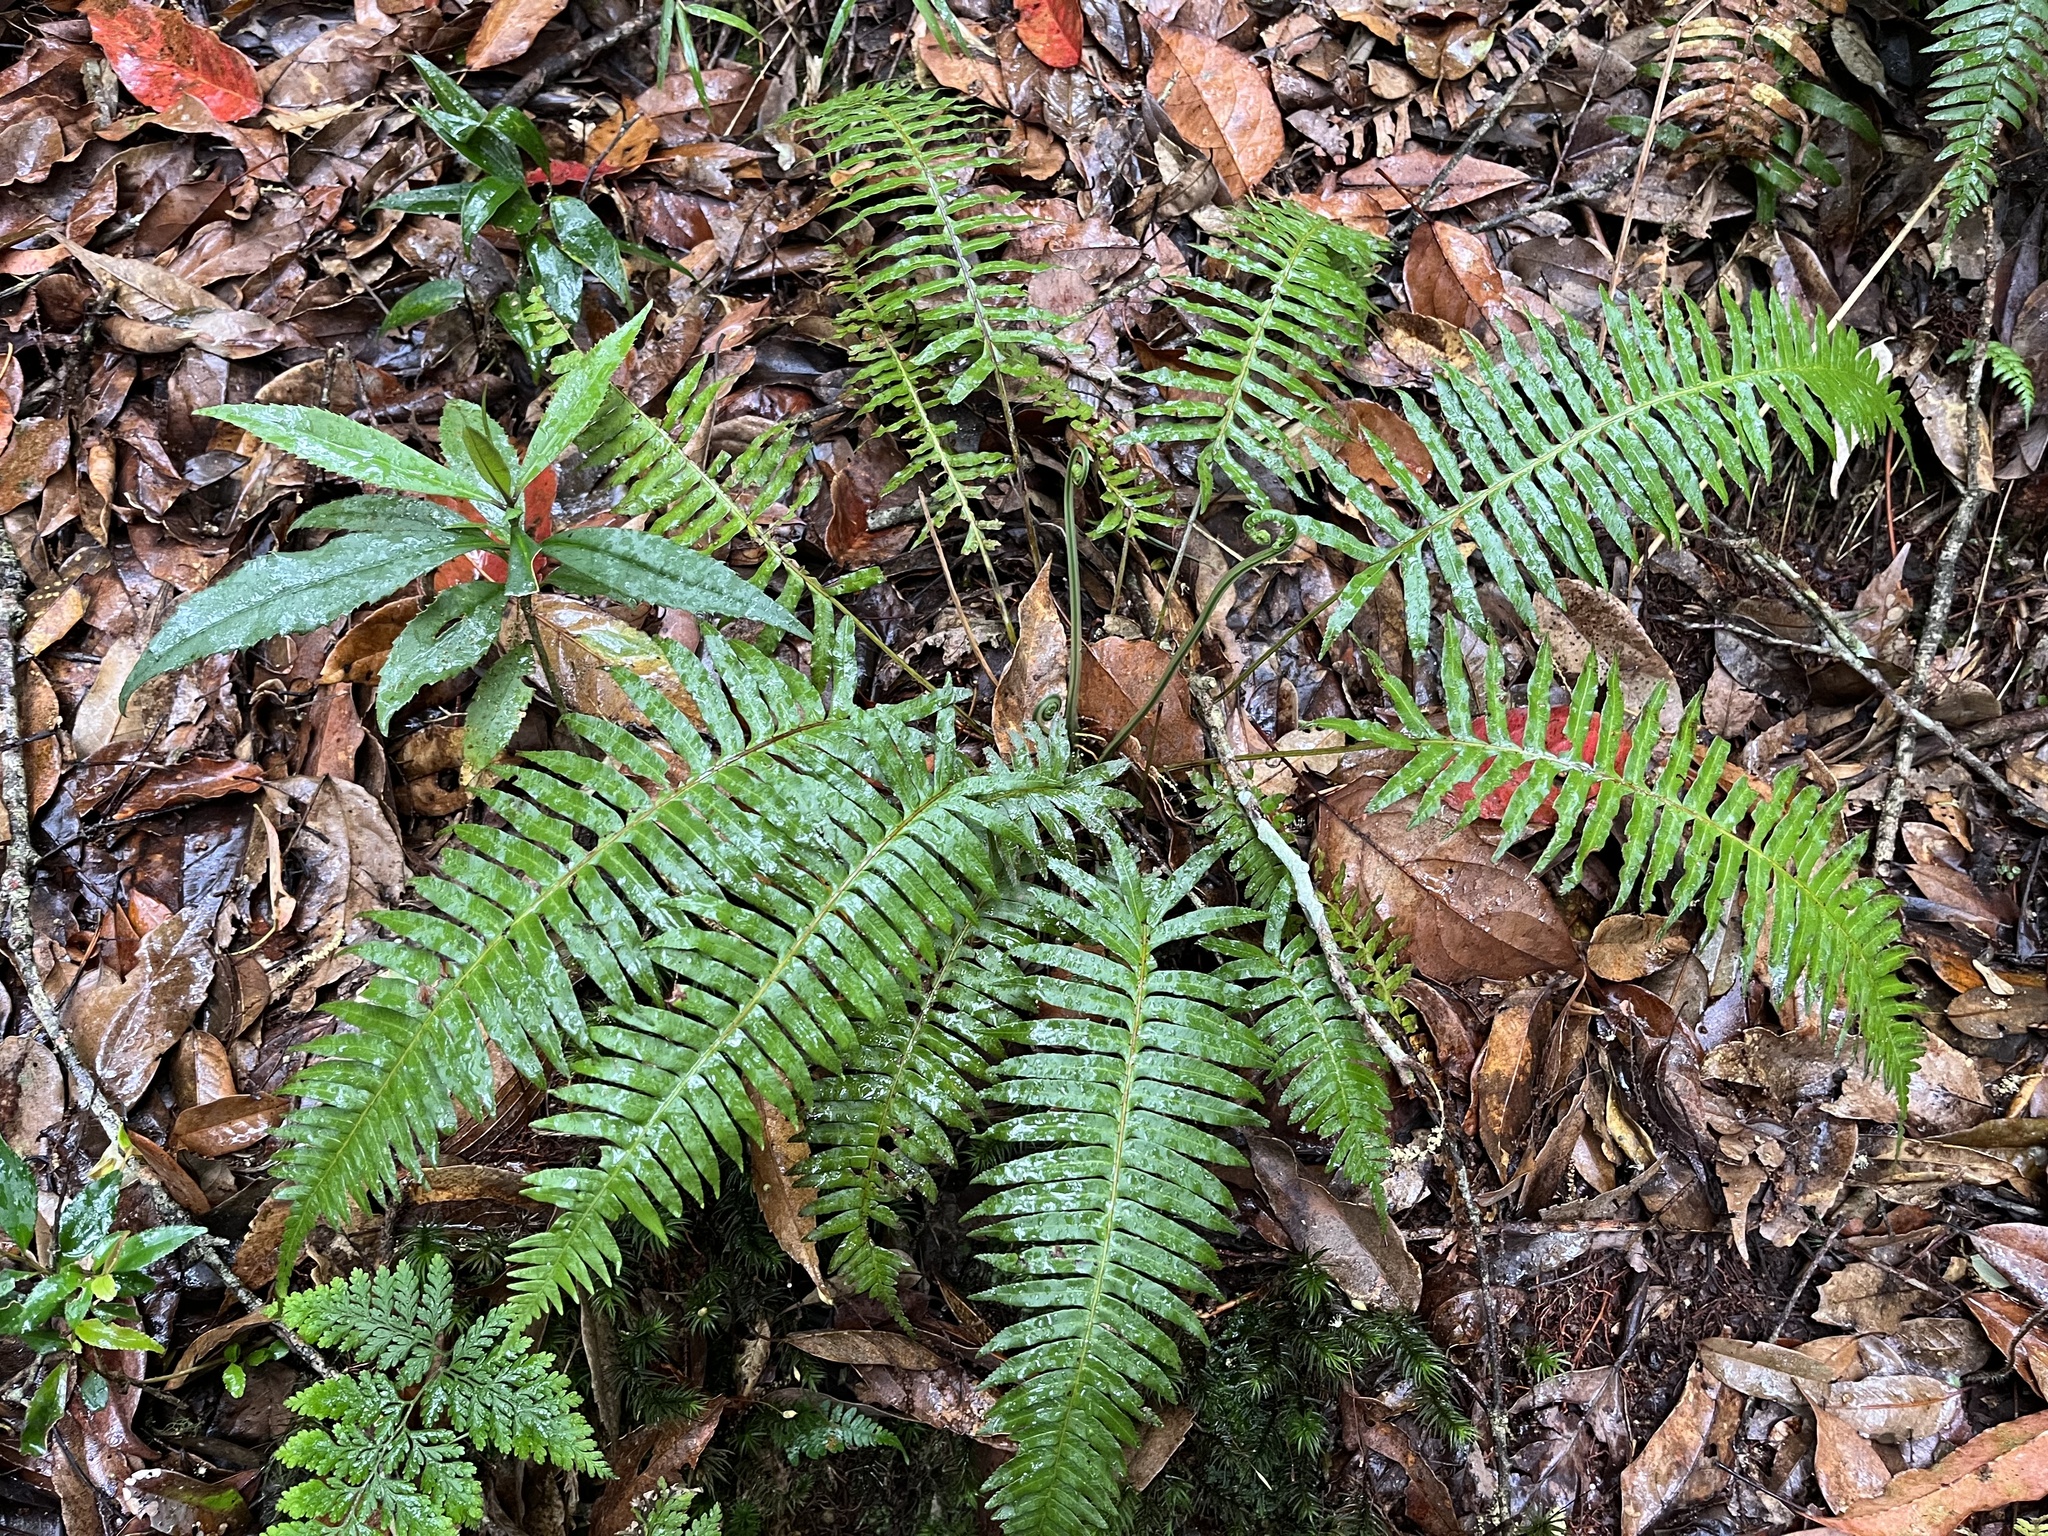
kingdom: Plantae
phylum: Tracheophyta
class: Polypodiopsida
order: Cyatheales
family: Plagiogyriaceae
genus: Plagiogyria
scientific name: Plagiogyria falcata
